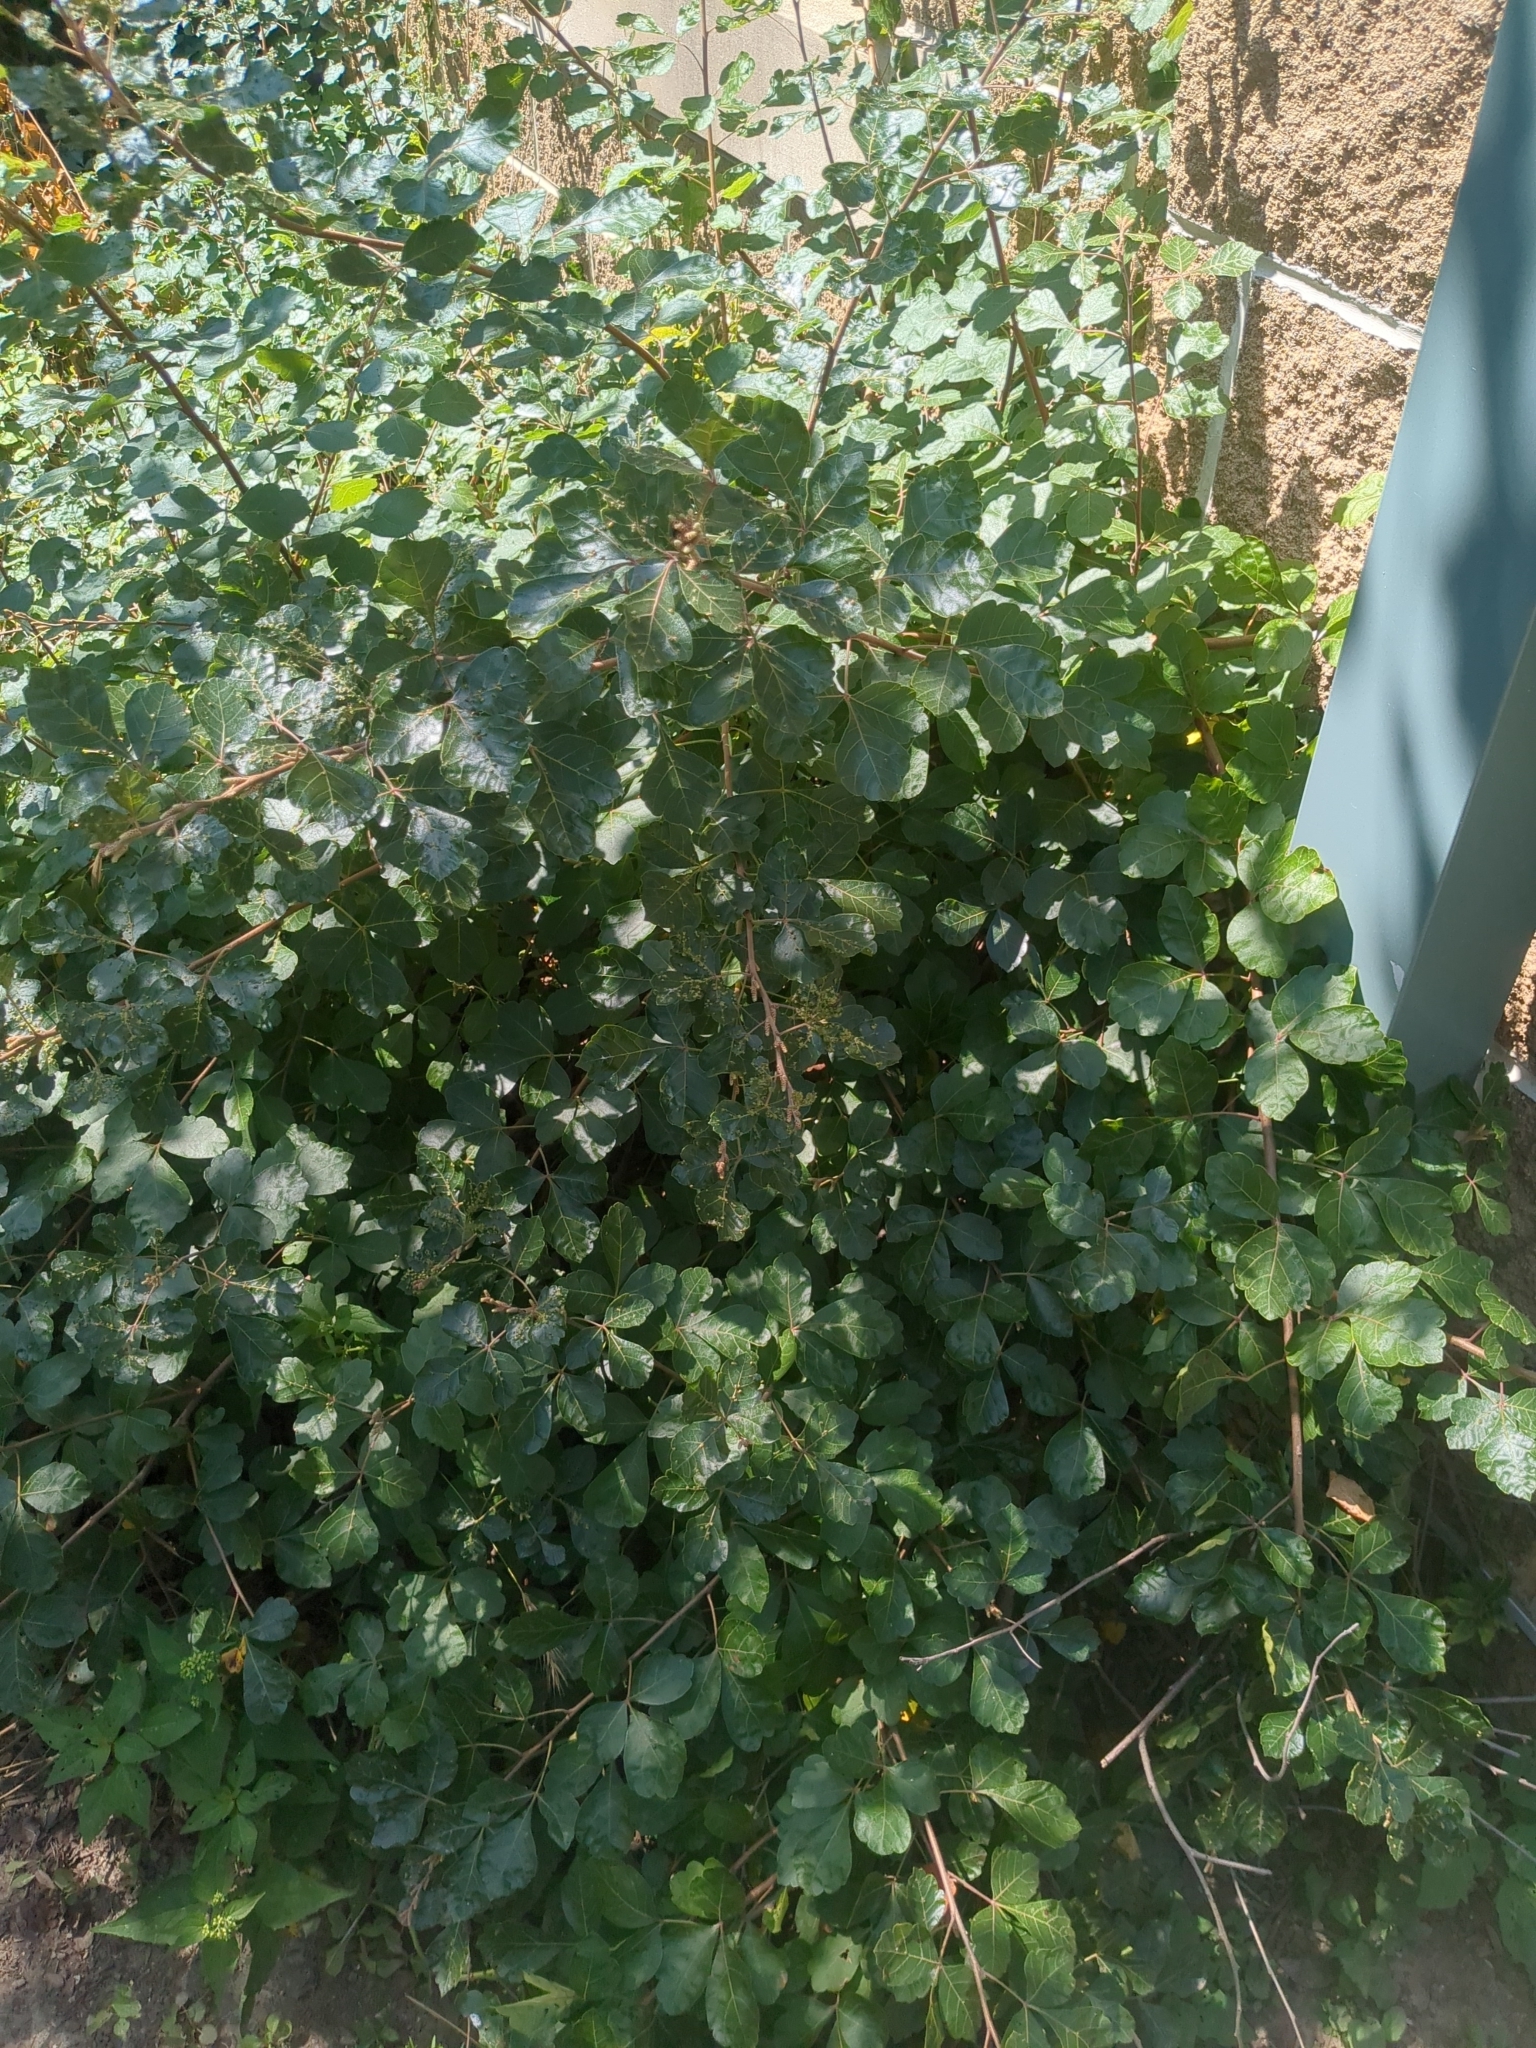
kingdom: Plantae
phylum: Tracheophyta
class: Magnoliopsida
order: Sapindales
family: Anacardiaceae
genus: Rhus
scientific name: Rhus aromatica
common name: Aromatic sumac
